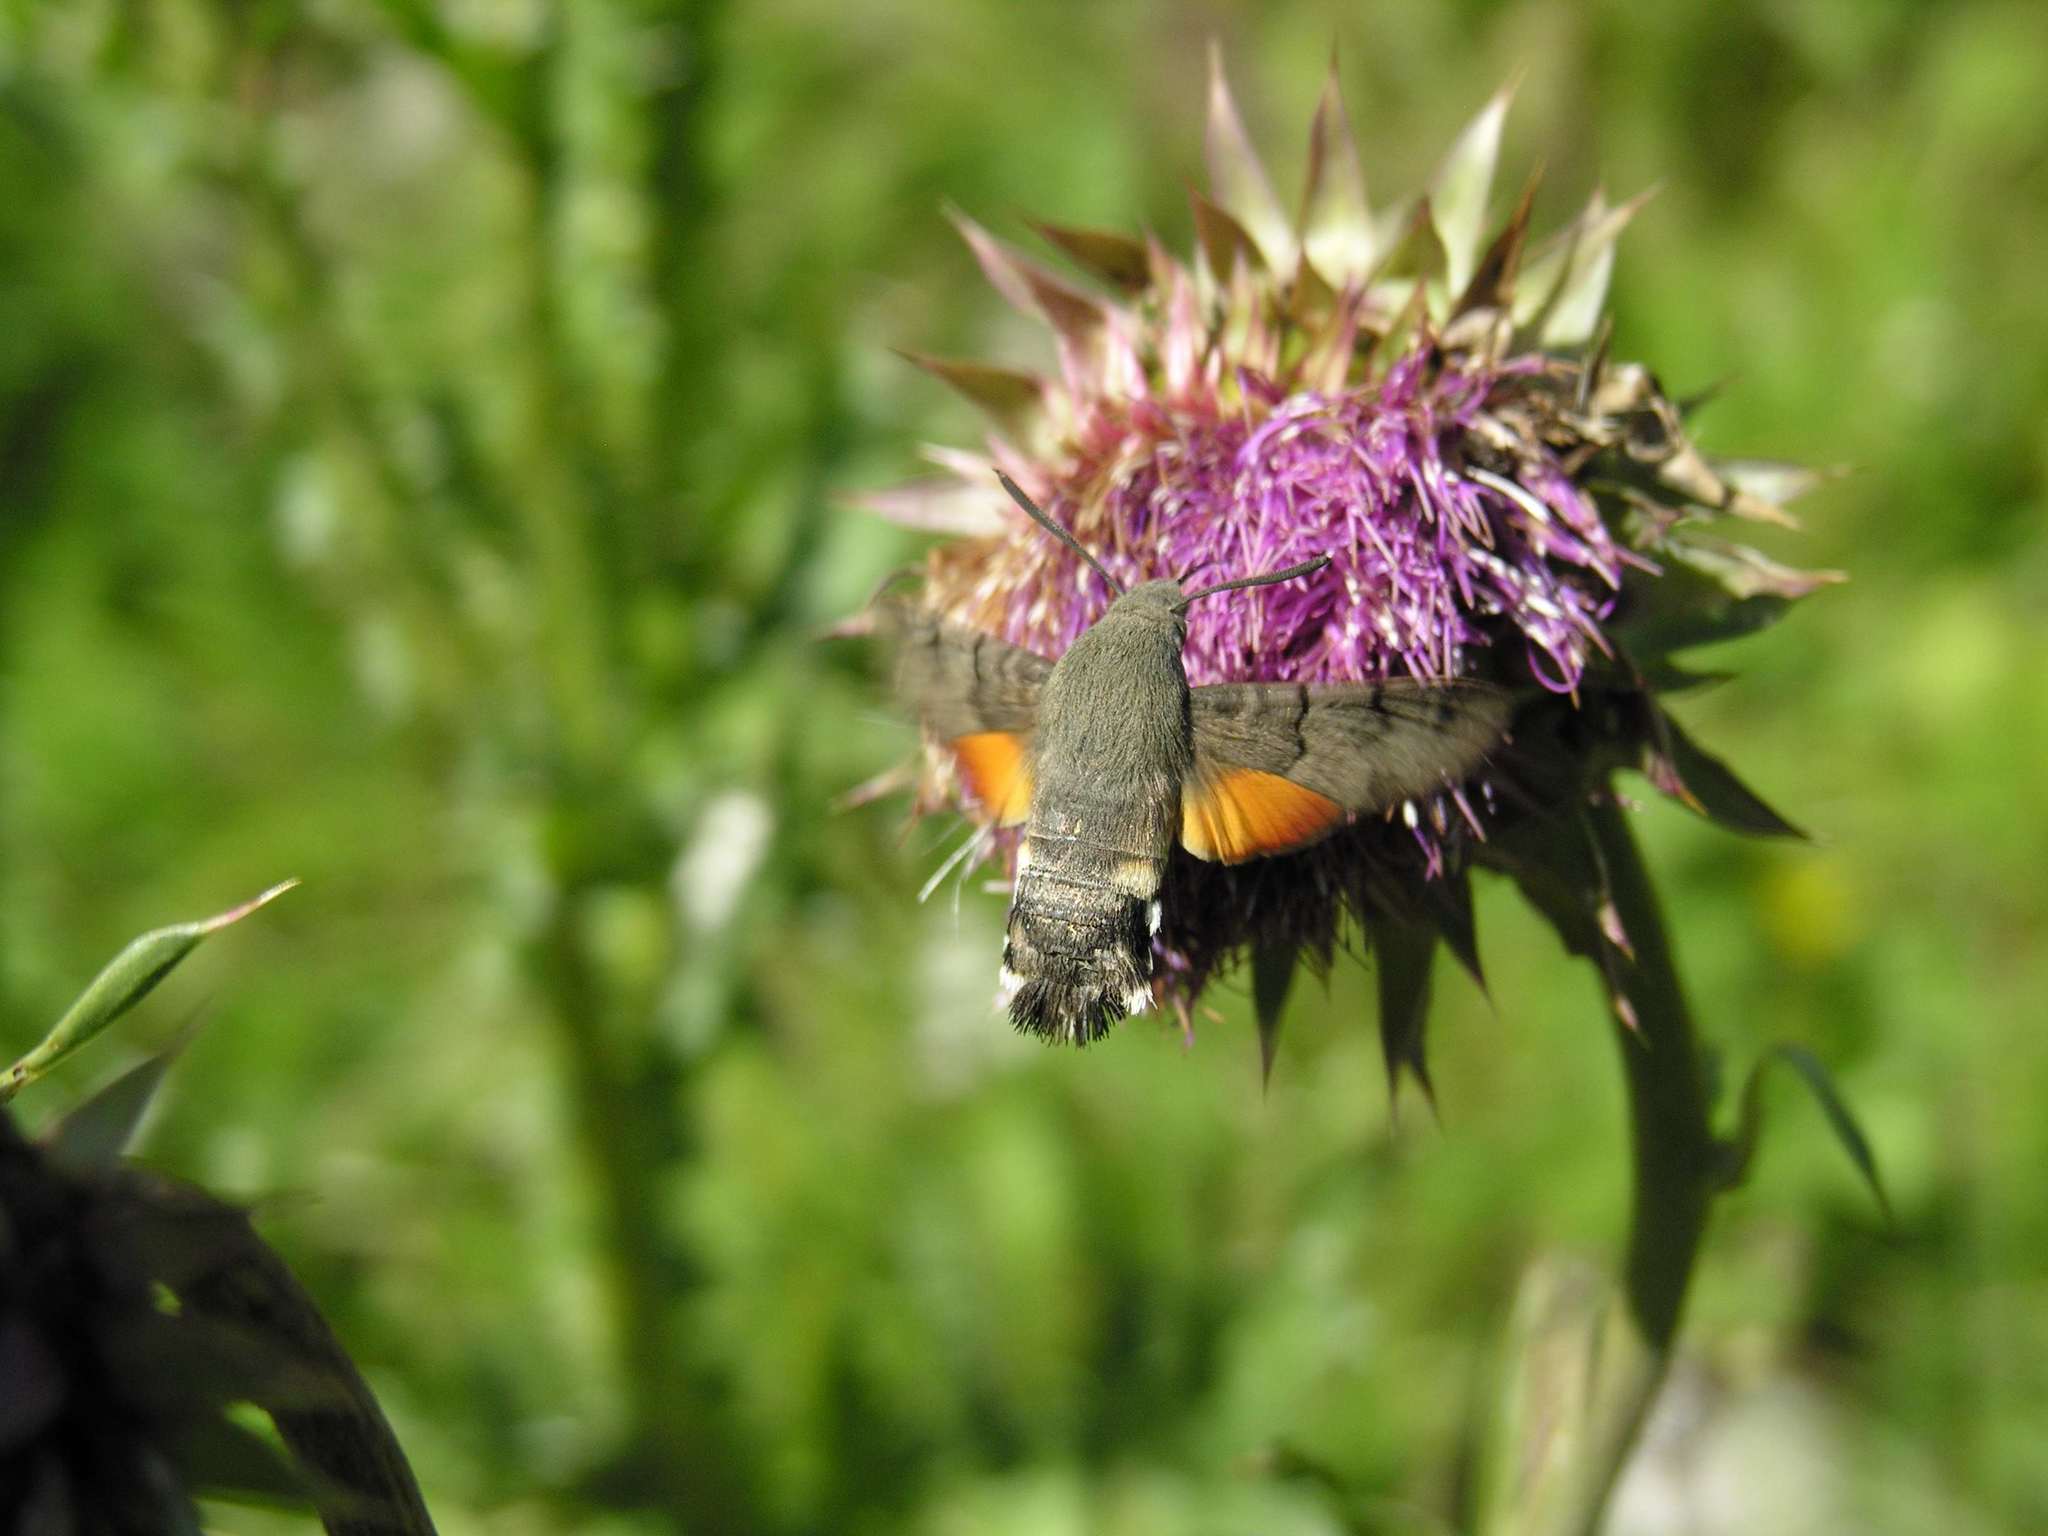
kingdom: Animalia
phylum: Arthropoda
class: Insecta
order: Lepidoptera
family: Sphingidae
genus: Macroglossum
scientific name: Macroglossum stellatarum
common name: Humming-bird hawk-moth
